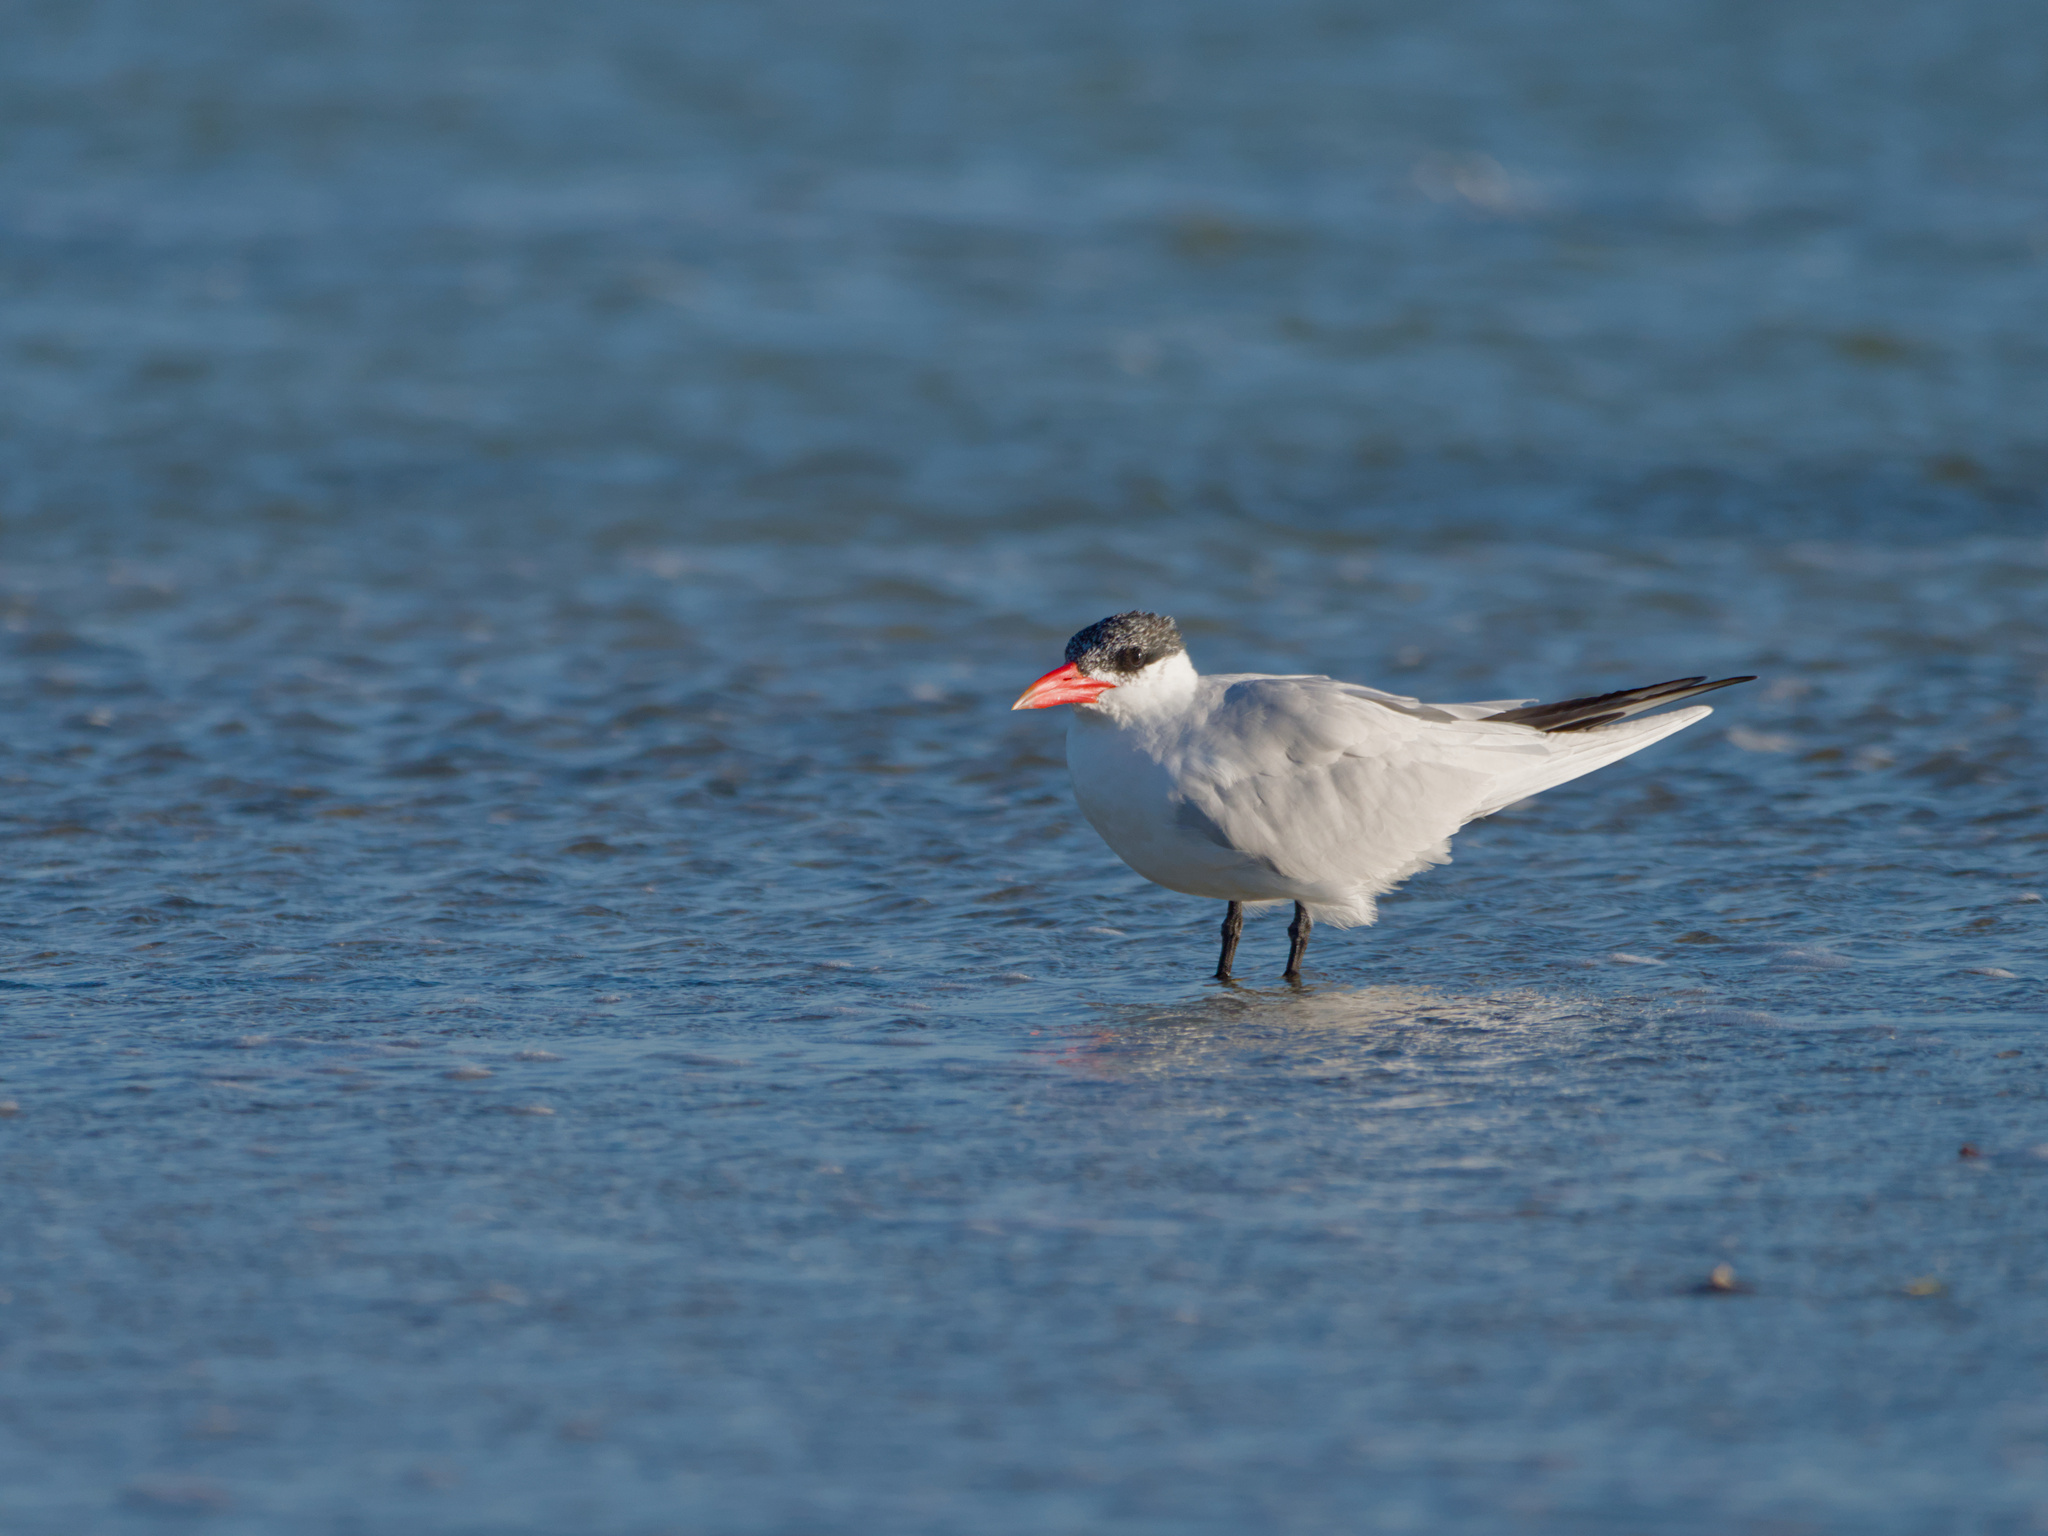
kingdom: Animalia
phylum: Chordata
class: Aves
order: Charadriiformes
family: Laridae
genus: Hydroprogne
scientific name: Hydroprogne caspia
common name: Caspian tern
